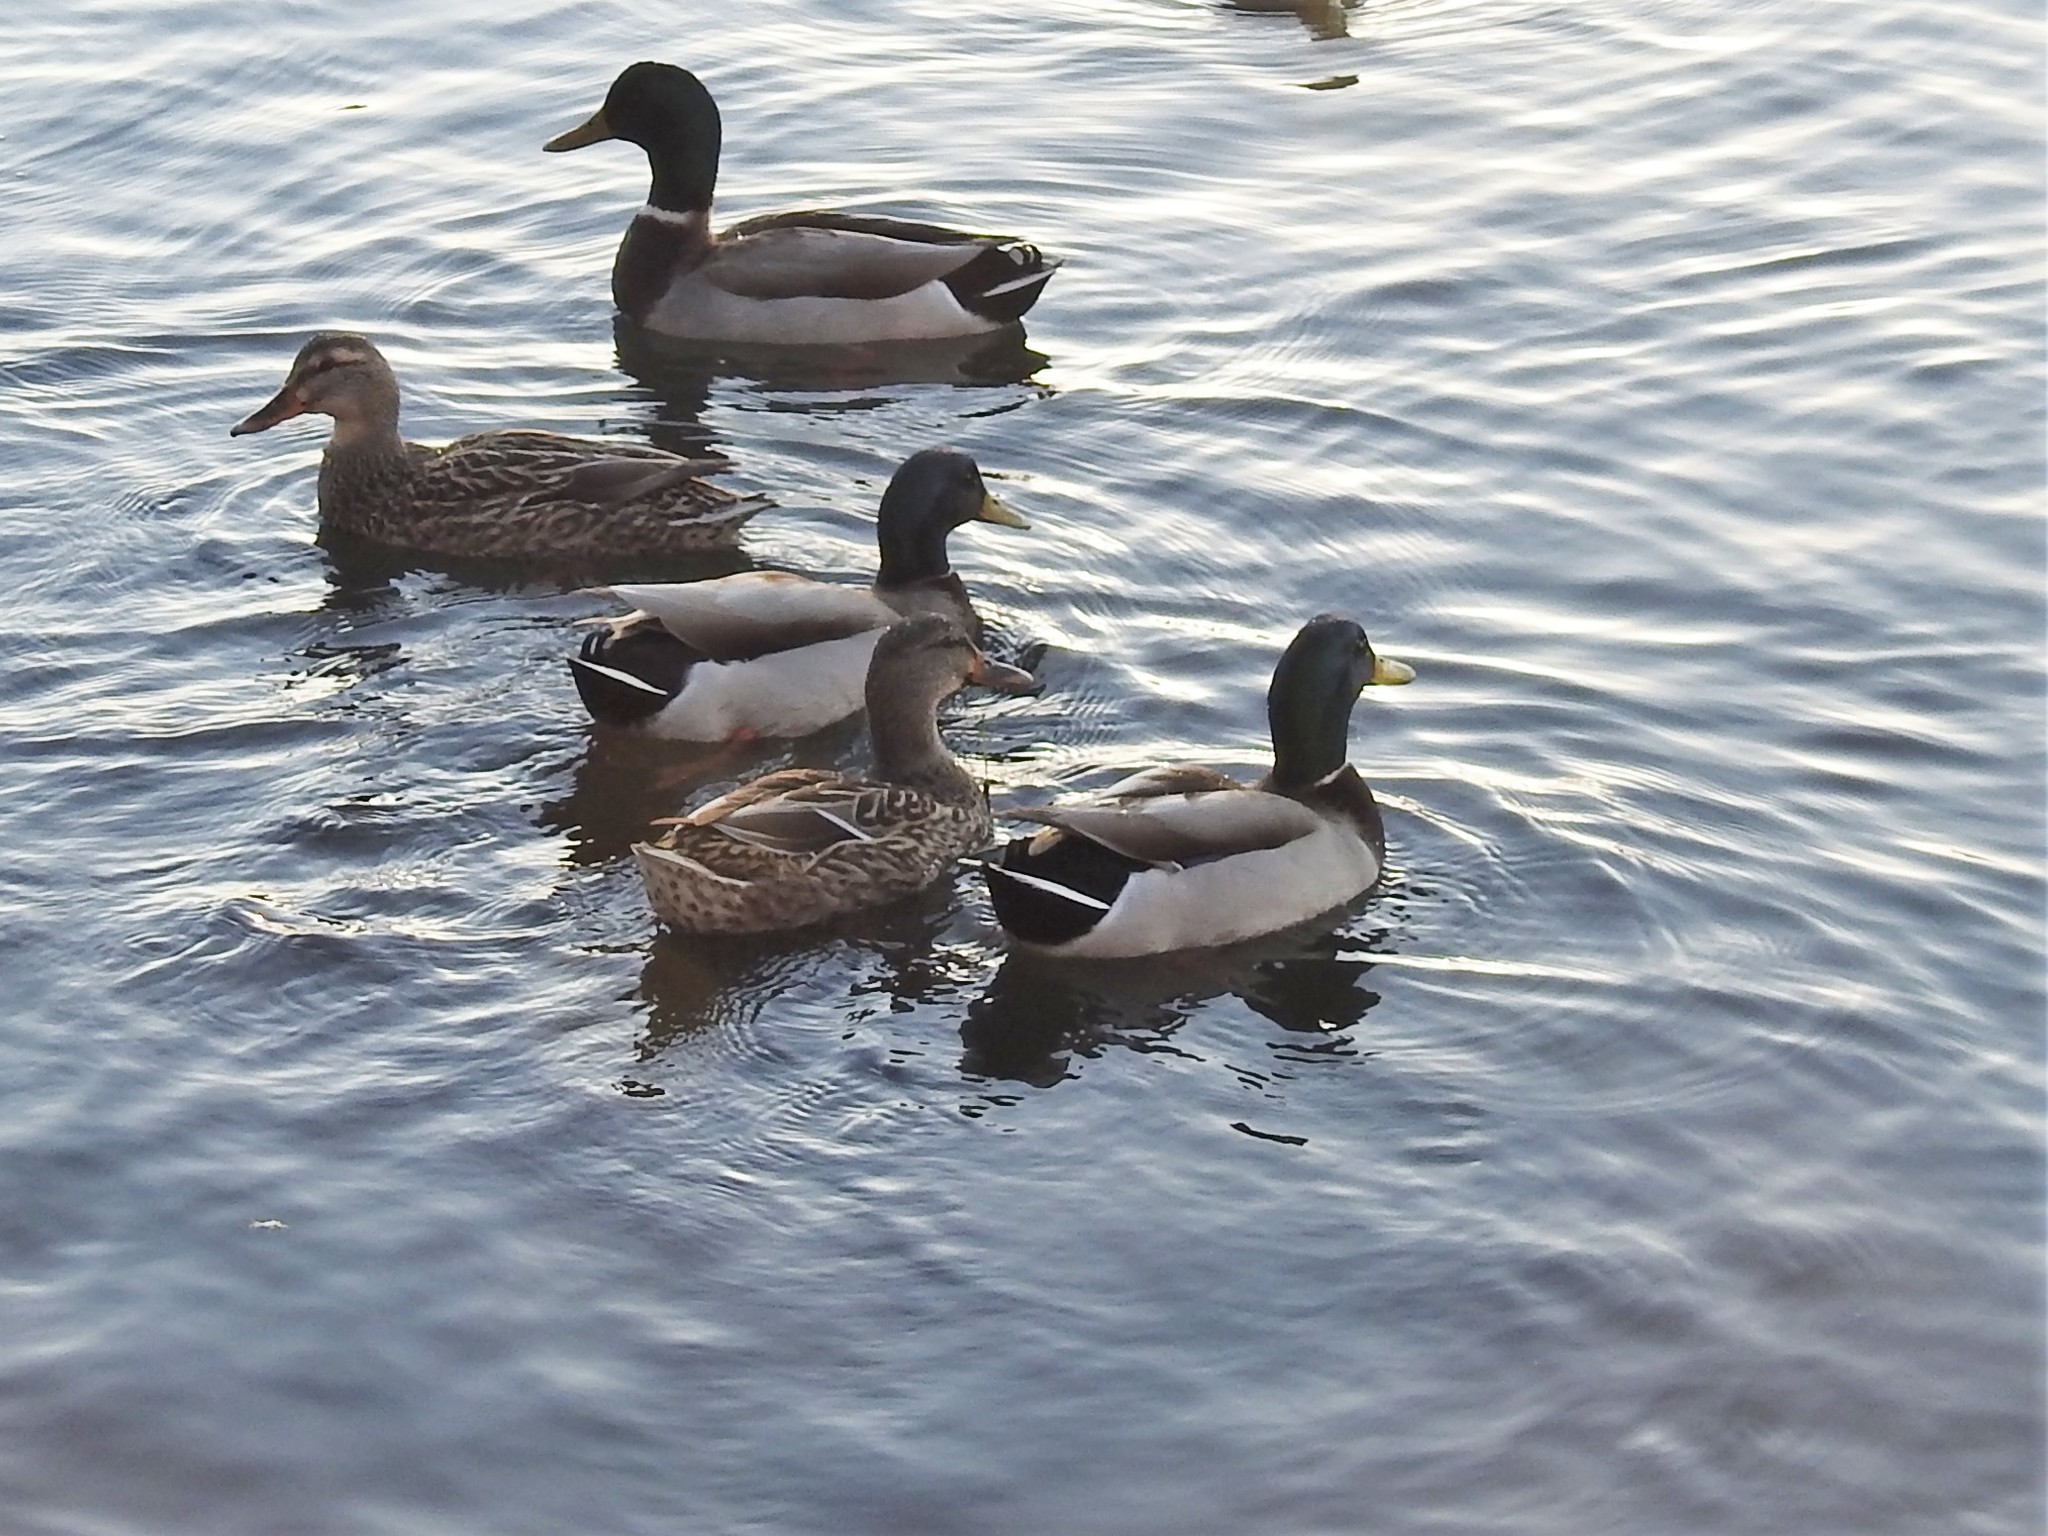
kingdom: Animalia
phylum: Chordata
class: Aves
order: Anseriformes
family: Anatidae
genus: Anas
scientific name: Anas platyrhynchos
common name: Mallard
